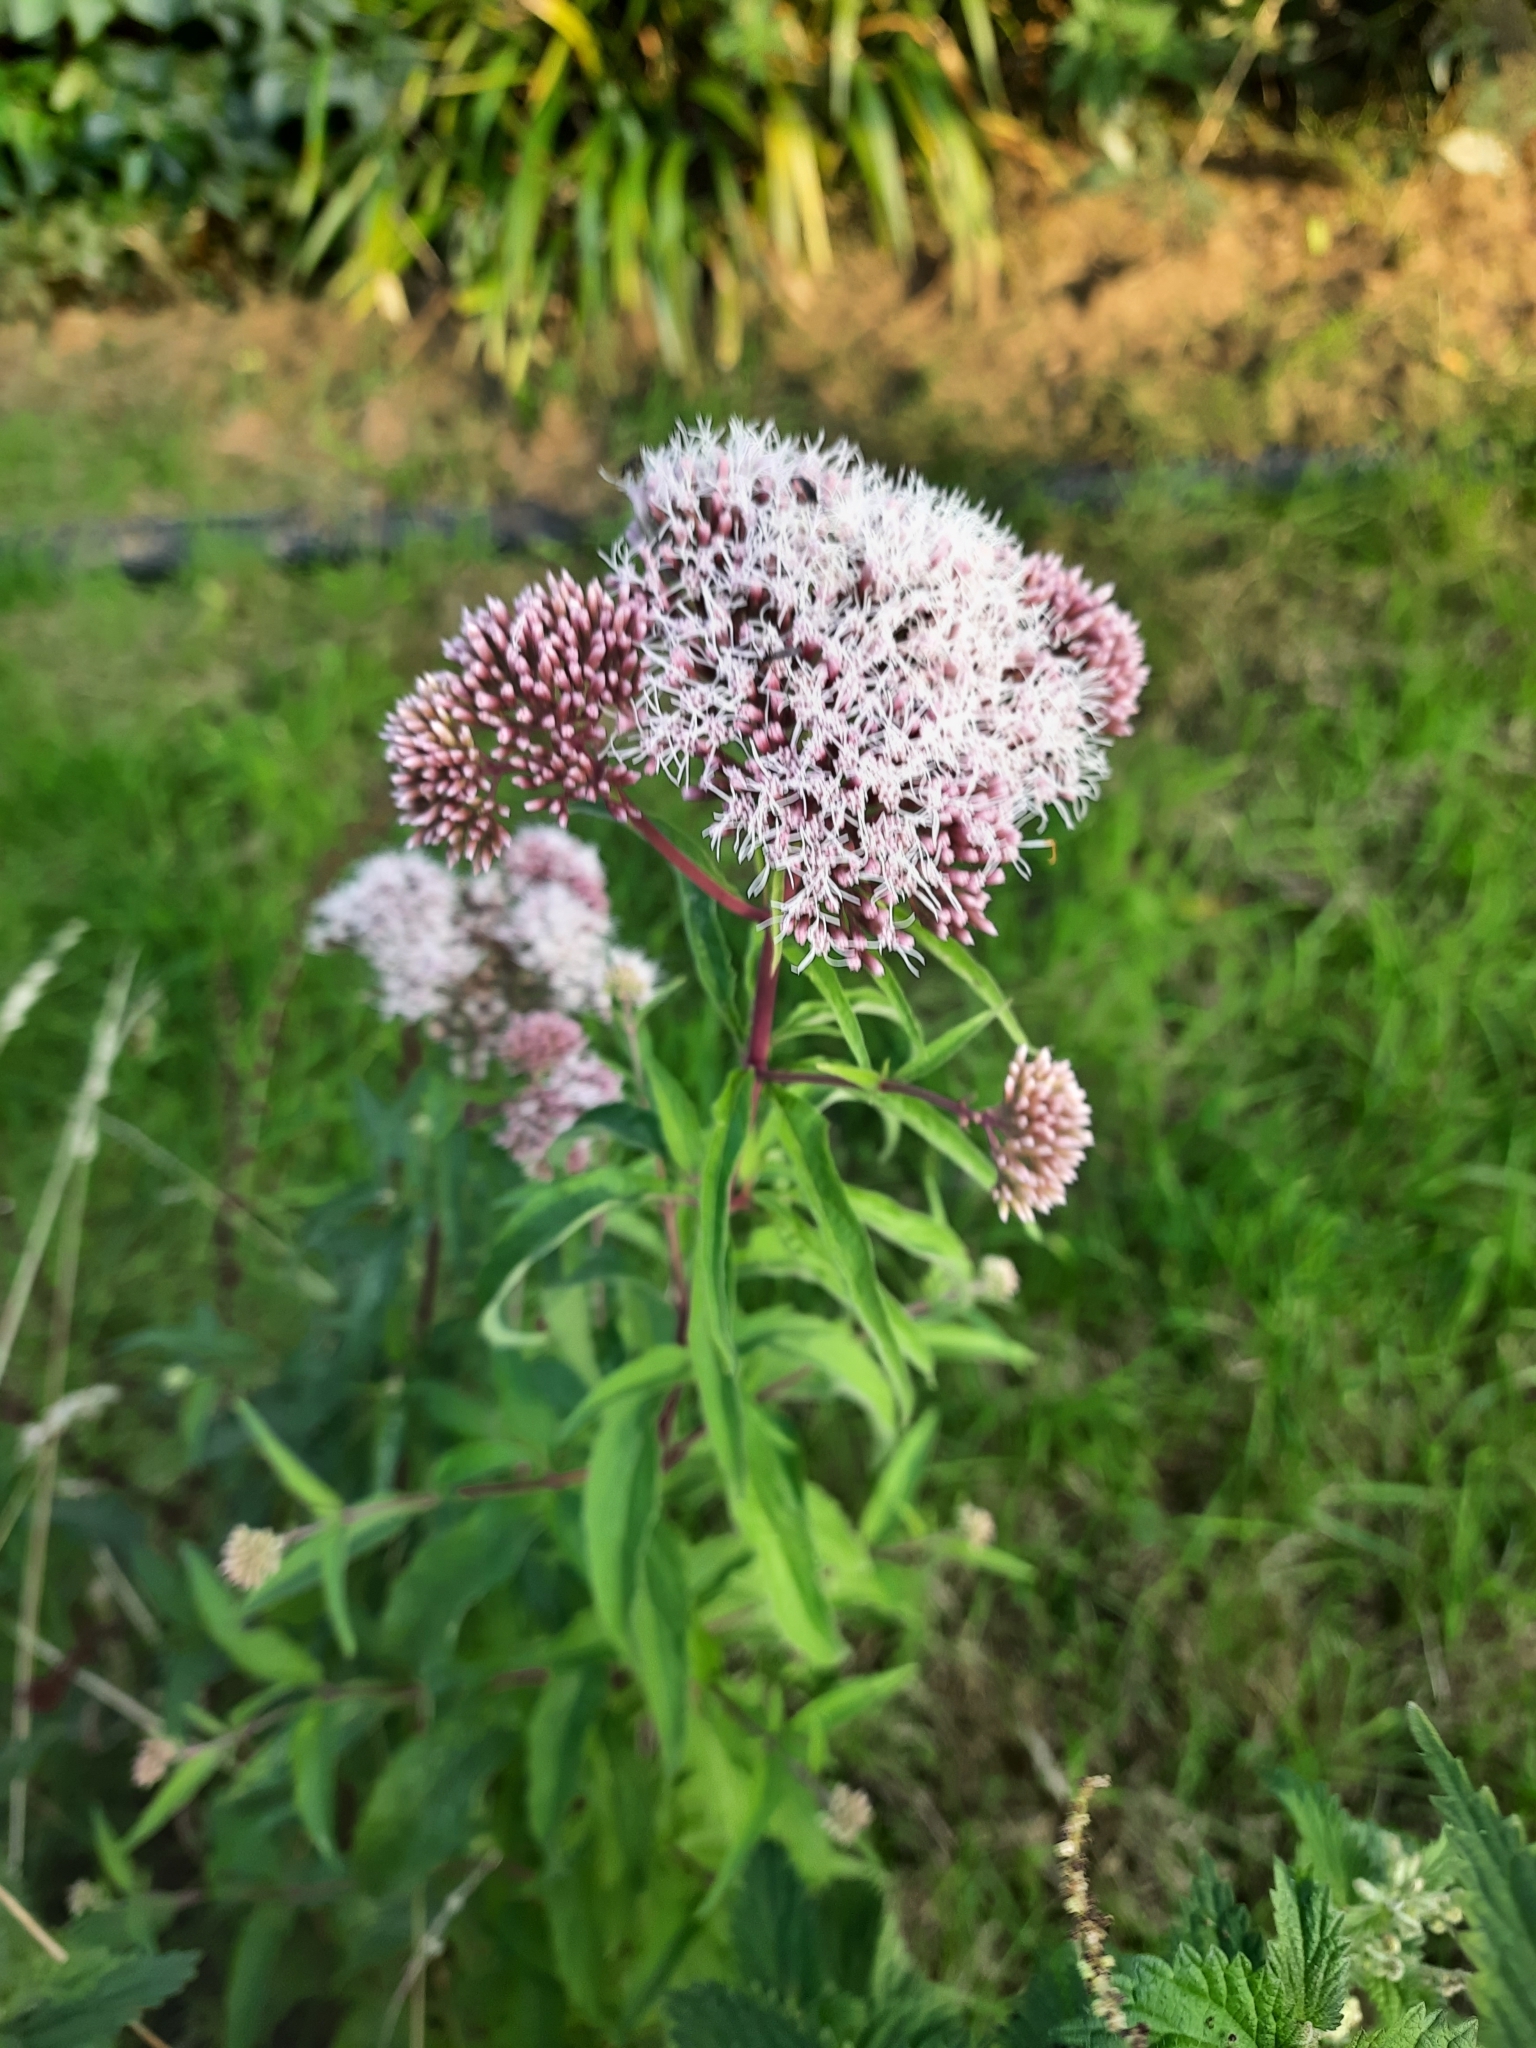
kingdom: Plantae
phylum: Tracheophyta
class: Magnoliopsida
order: Asterales
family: Asteraceae
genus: Eupatorium
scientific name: Eupatorium cannabinum
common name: Hemp-agrimony
